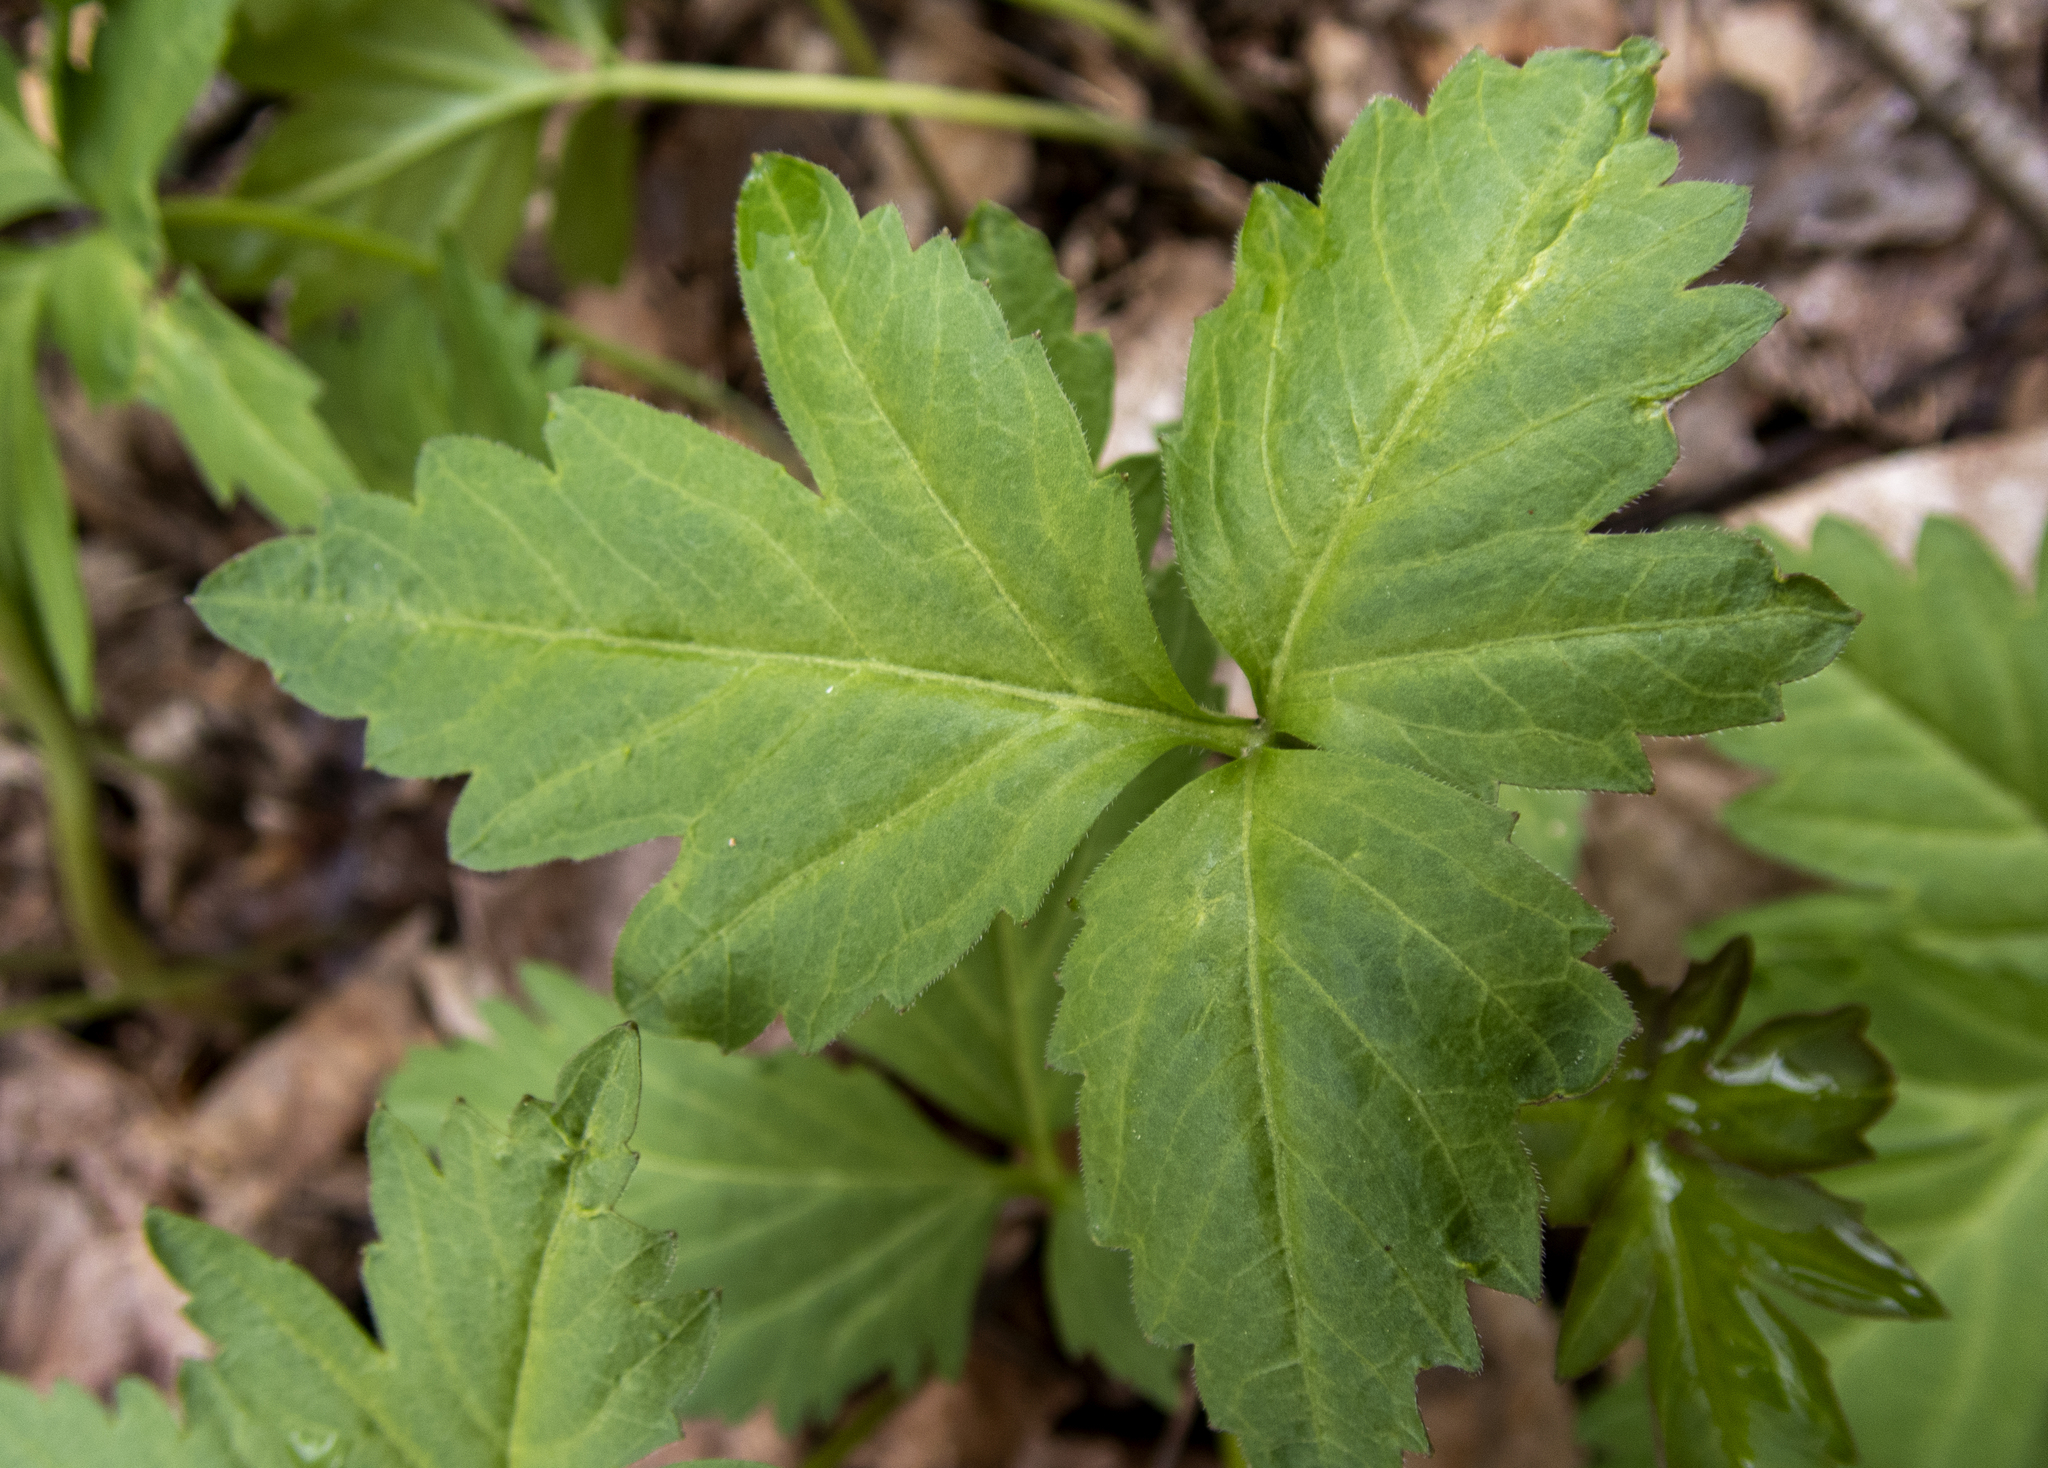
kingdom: Plantae
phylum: Tracheophyta
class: Magnoliopsida
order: Brassicales
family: Brassicaceae
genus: Cardamine
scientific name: Cardamine diphylla
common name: Broad-leaved toothwort
